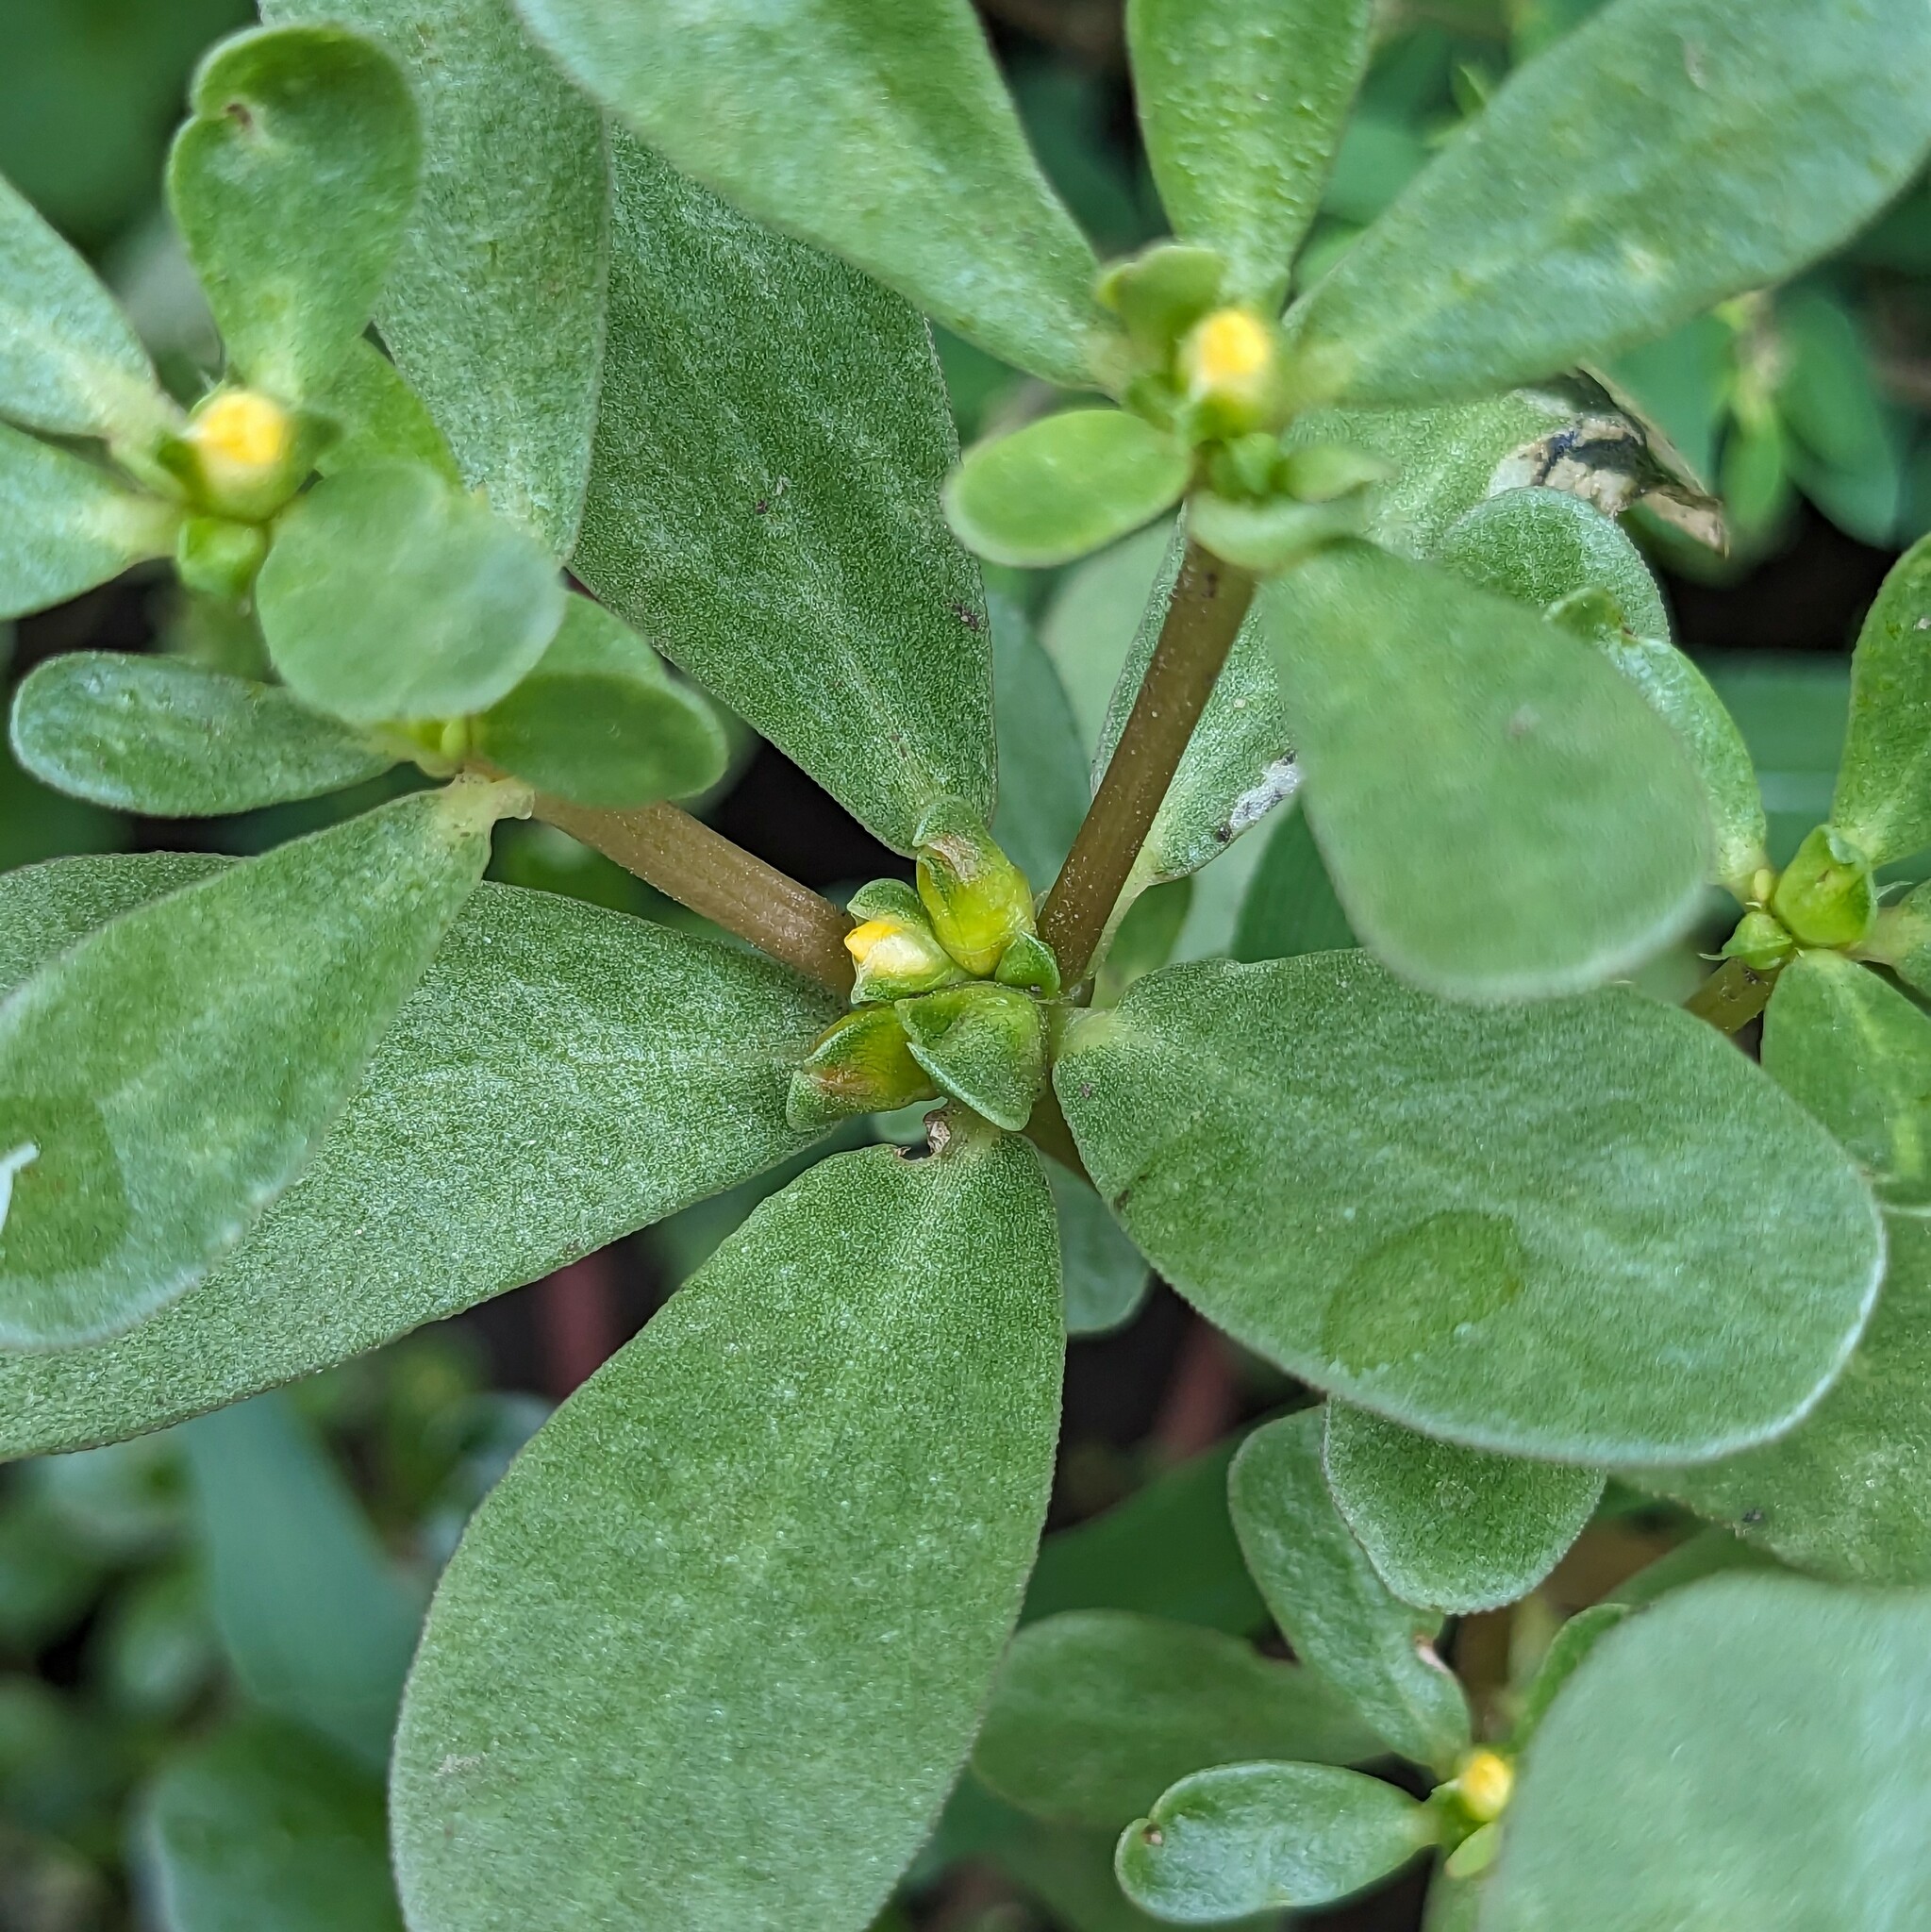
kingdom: Plantae
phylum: Tracheophyta
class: Magnoliopsida
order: Caryophyllales
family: Portulacaceae
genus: Portulaca
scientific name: Portulaca oleracea
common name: Common purslane
